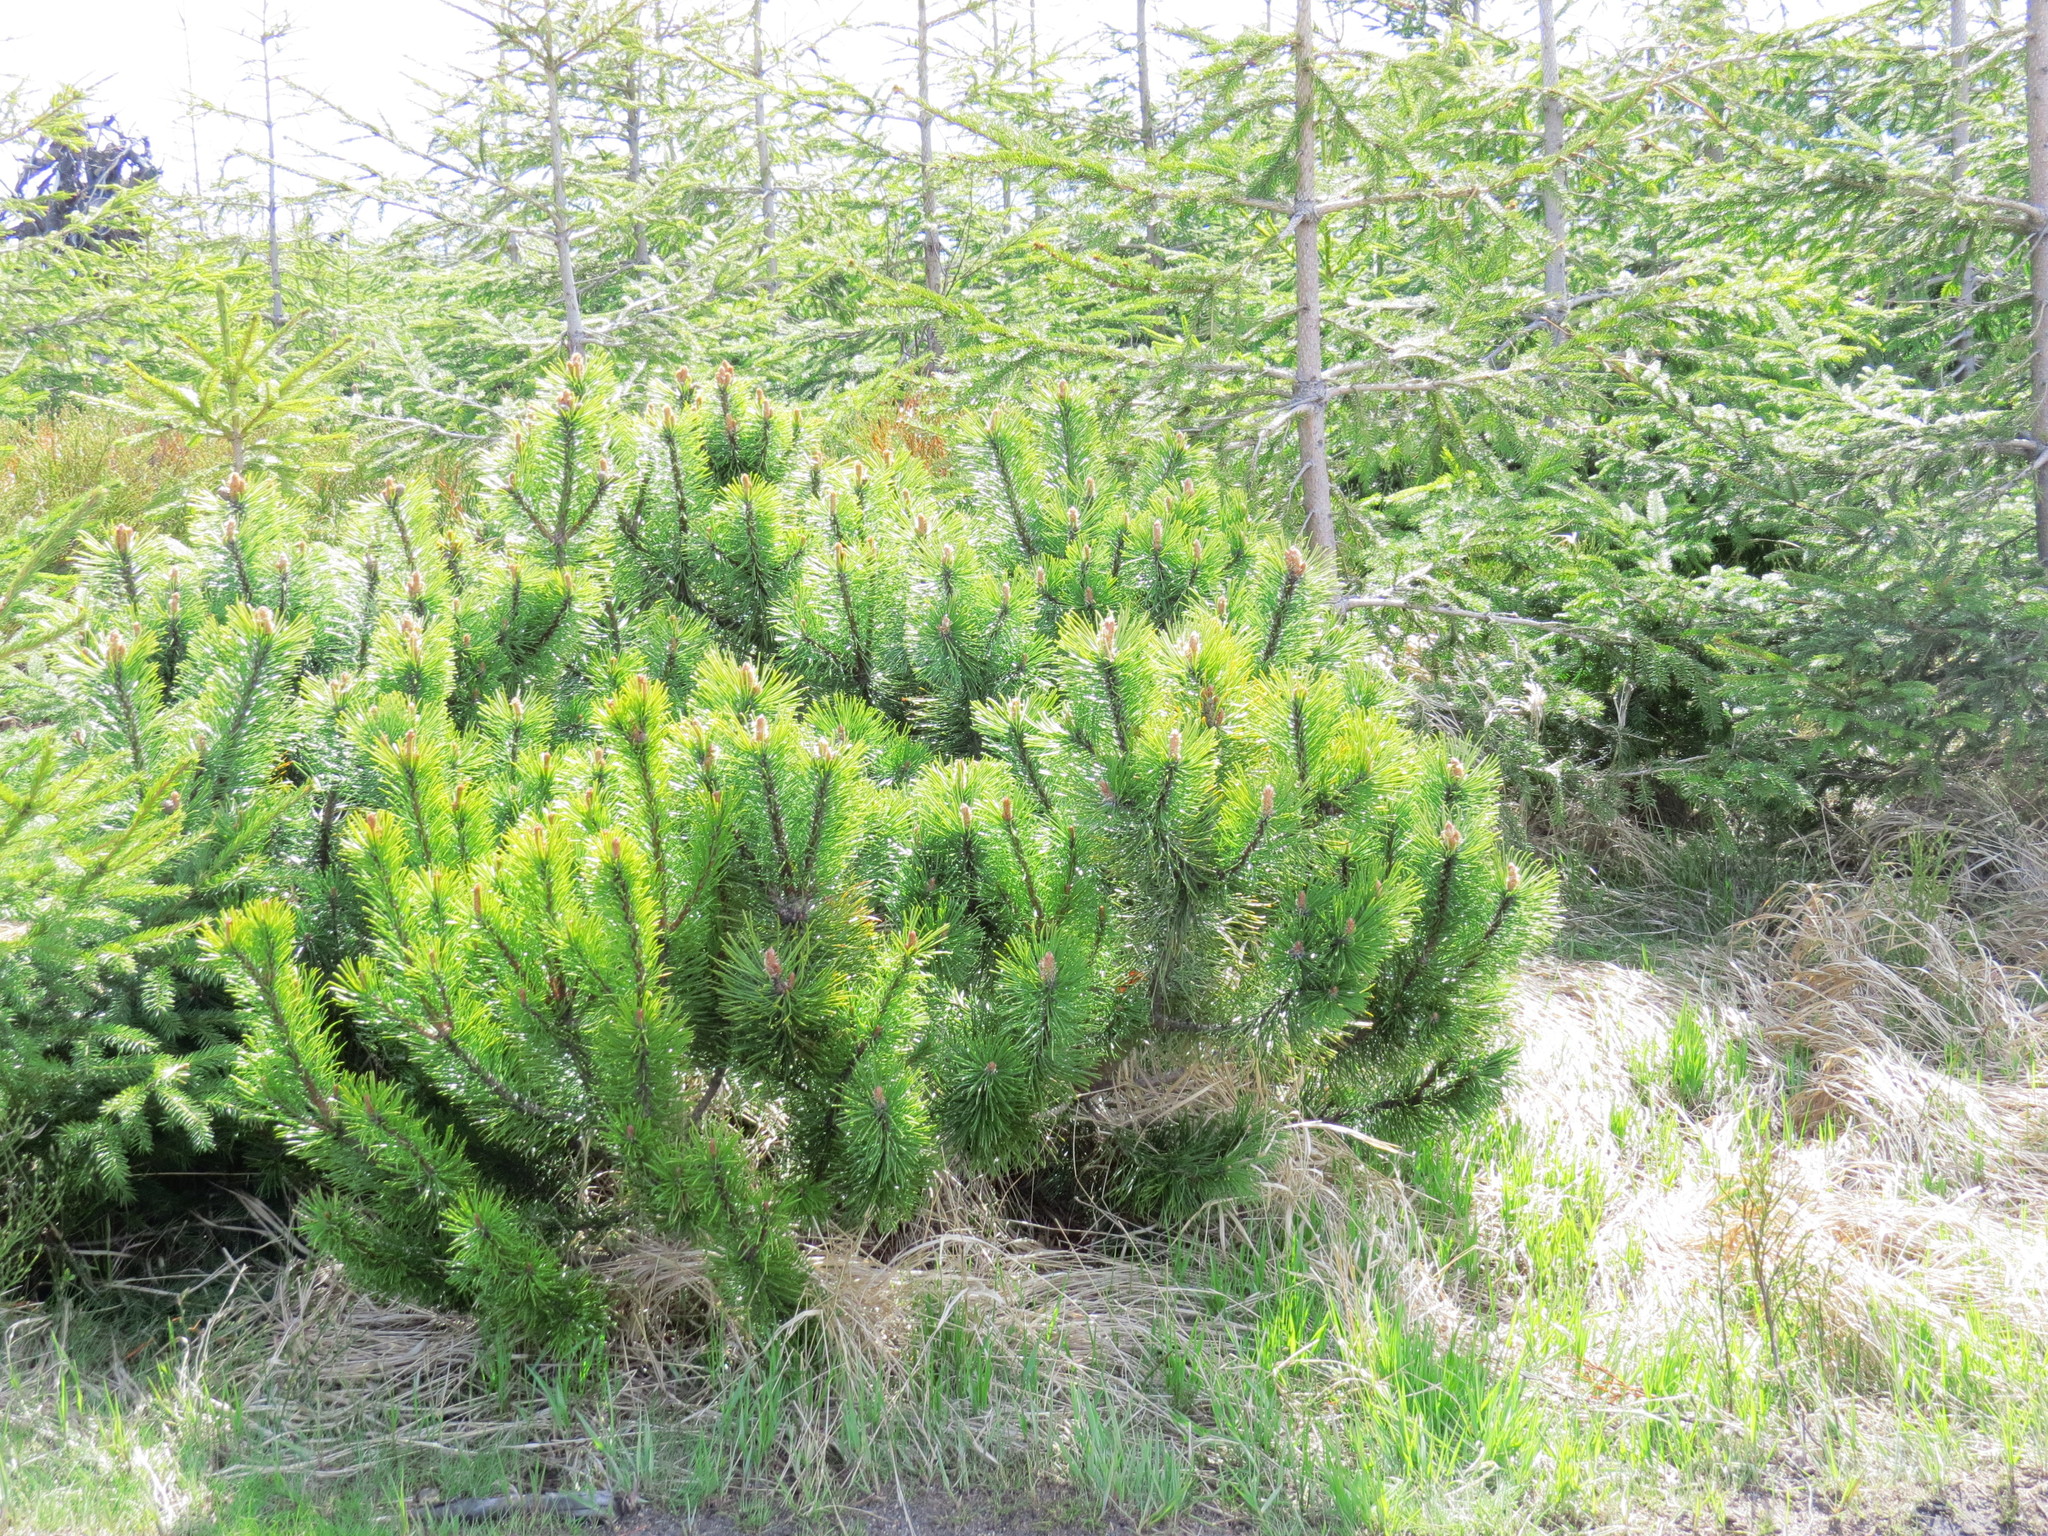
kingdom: Plantae
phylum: Tracheophyta
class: Pinopsida
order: Pinales
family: Pinaceae
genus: Pinus
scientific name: Pinus mugo
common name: Mugo pine
